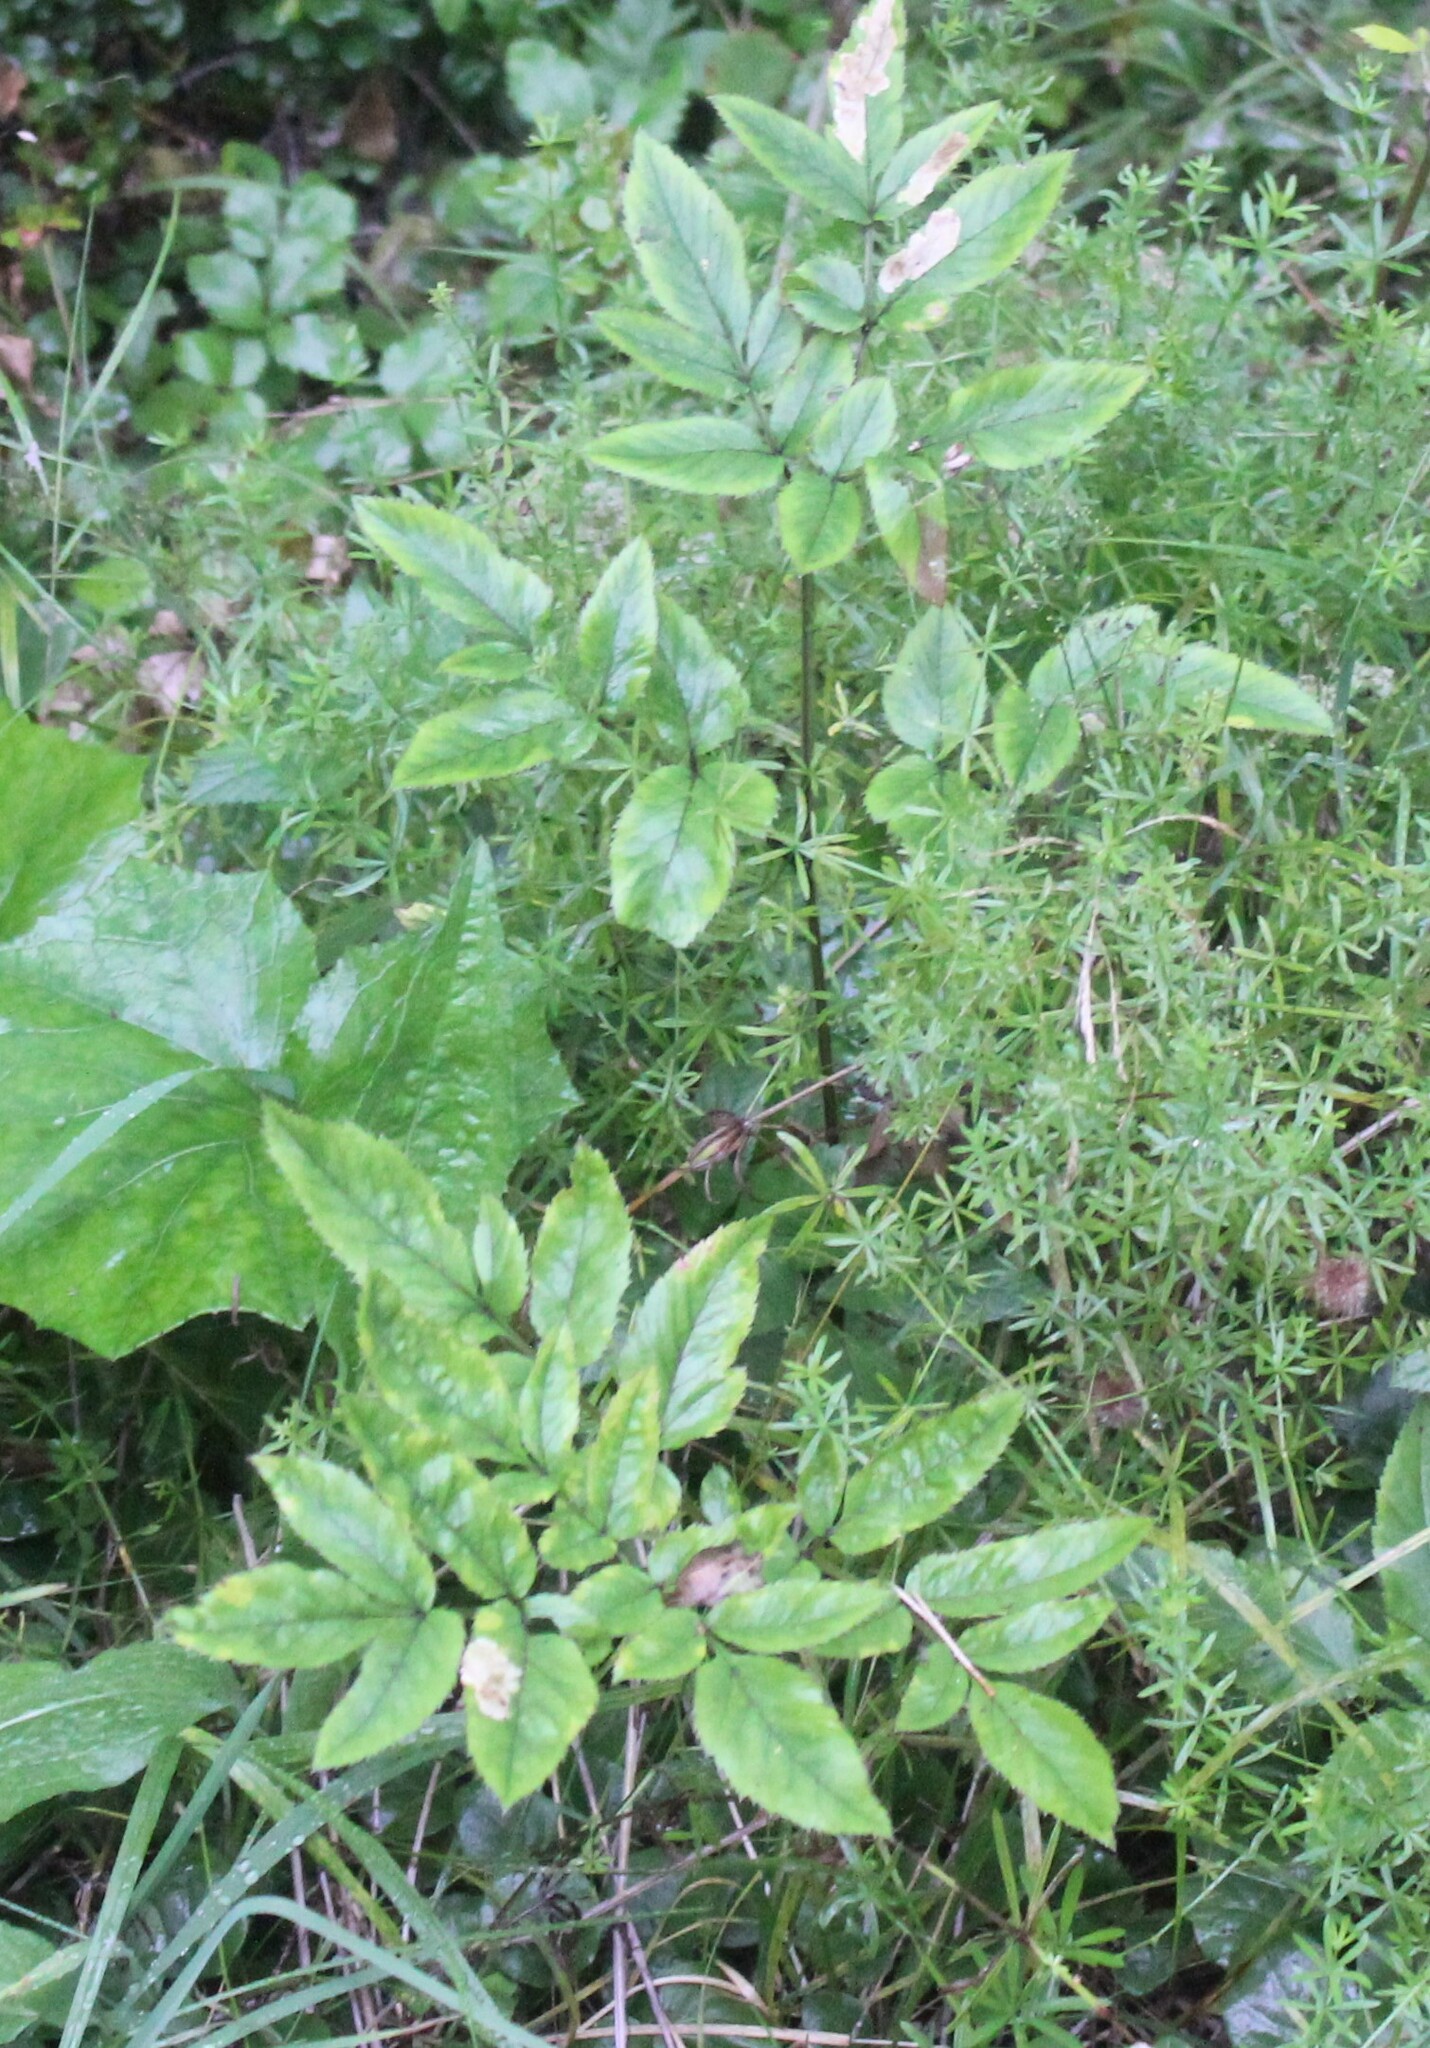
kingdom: Plantae
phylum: Tracheophyta
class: Magnoliopsida
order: Apiales
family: Apiaceae
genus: Angelica
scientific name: Angelica sylvestris
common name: Wild angelica
